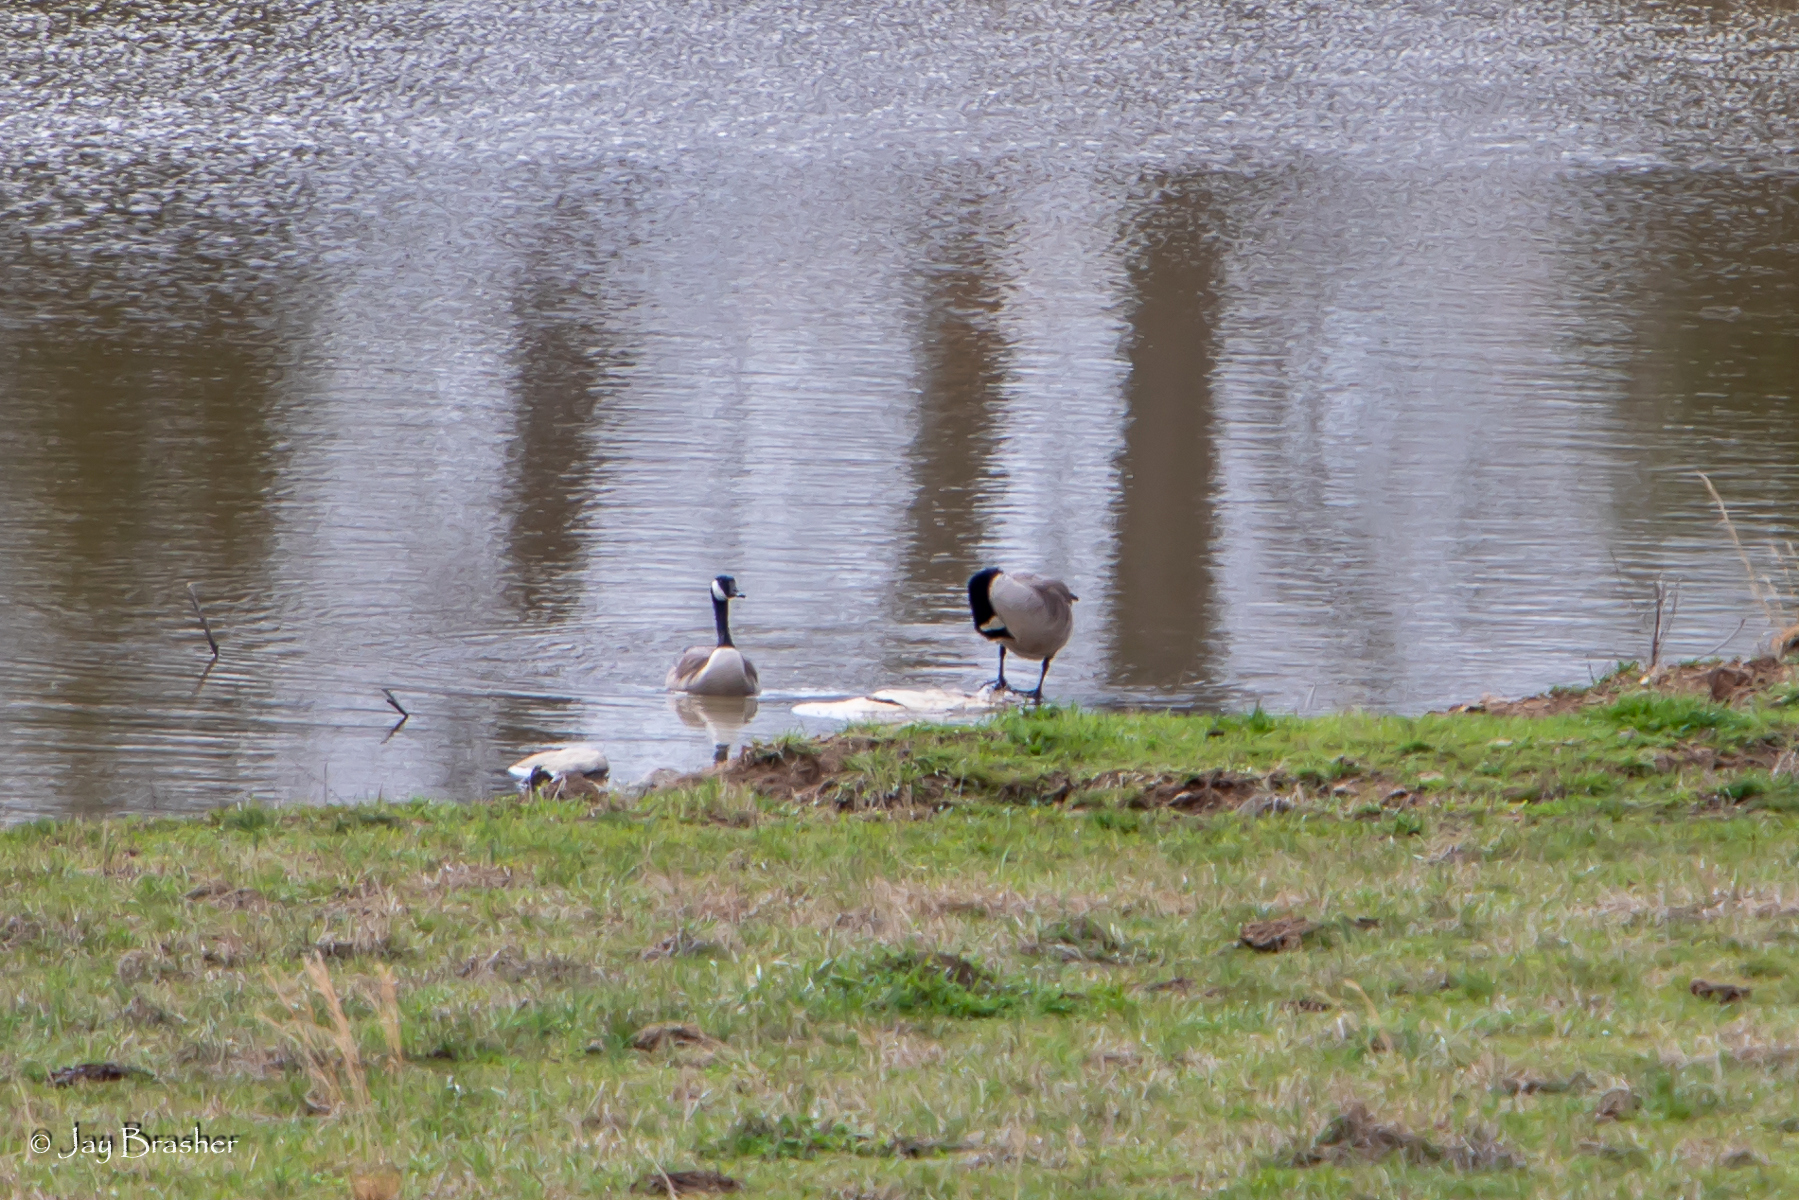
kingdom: Animalia
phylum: Chordata
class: Aves
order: Anseriformes
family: Anatidae
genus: Branta
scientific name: Branta canadensis
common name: Canada goose
